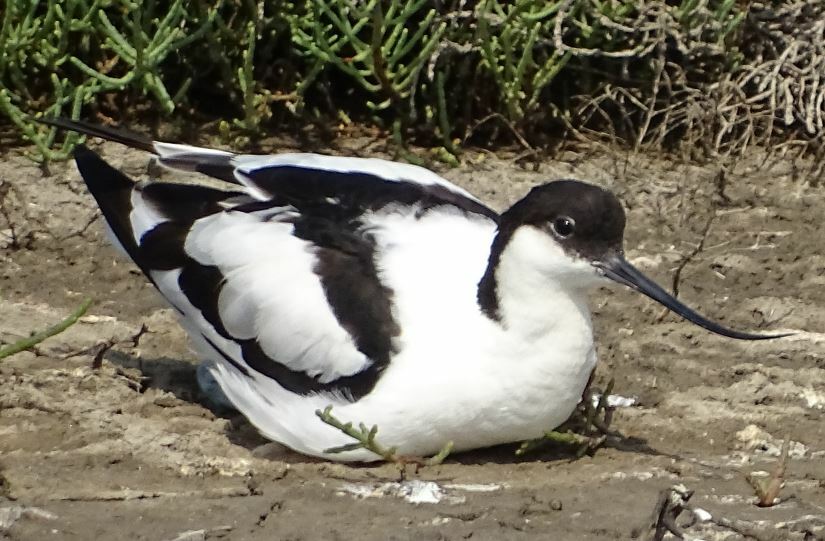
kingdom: Animalia
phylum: Chordata
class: Aves
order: Charadriiformes
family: Recurvirostridae
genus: Recurvirostra
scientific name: Recurvirostra avosetta
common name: Pied avocet
